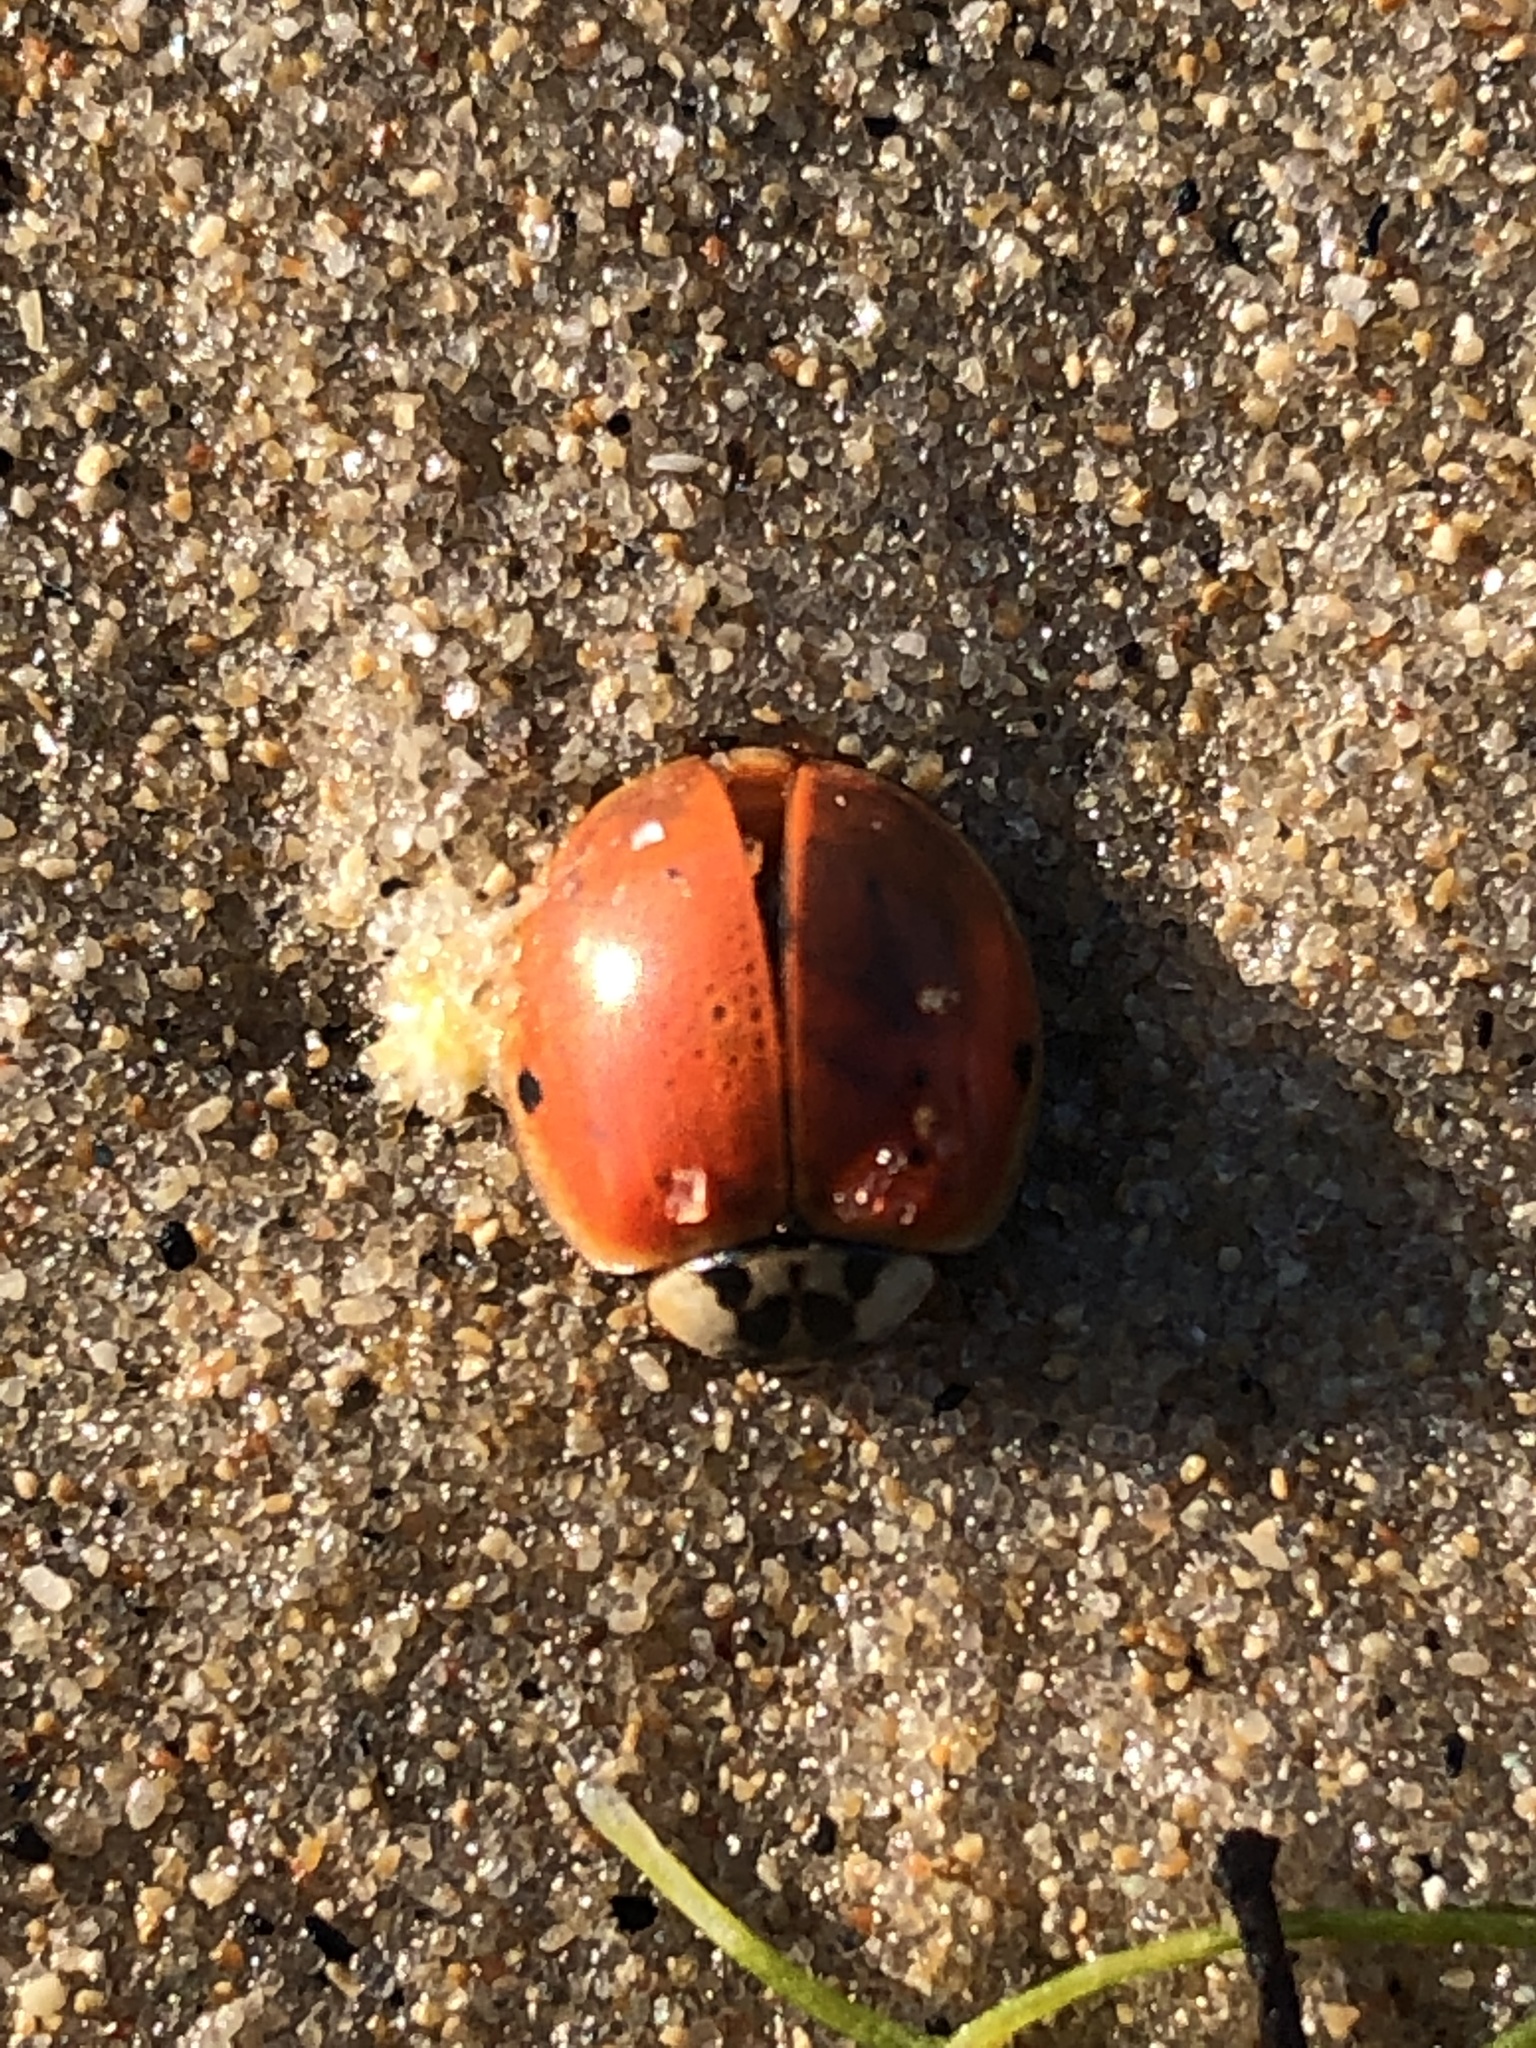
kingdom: Animalia
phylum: Arthropoda
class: Insecta
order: Coleoptera
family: Coccinellidae
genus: Harmonia
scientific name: Harmonia axyridis
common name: Harlequin ladybird
